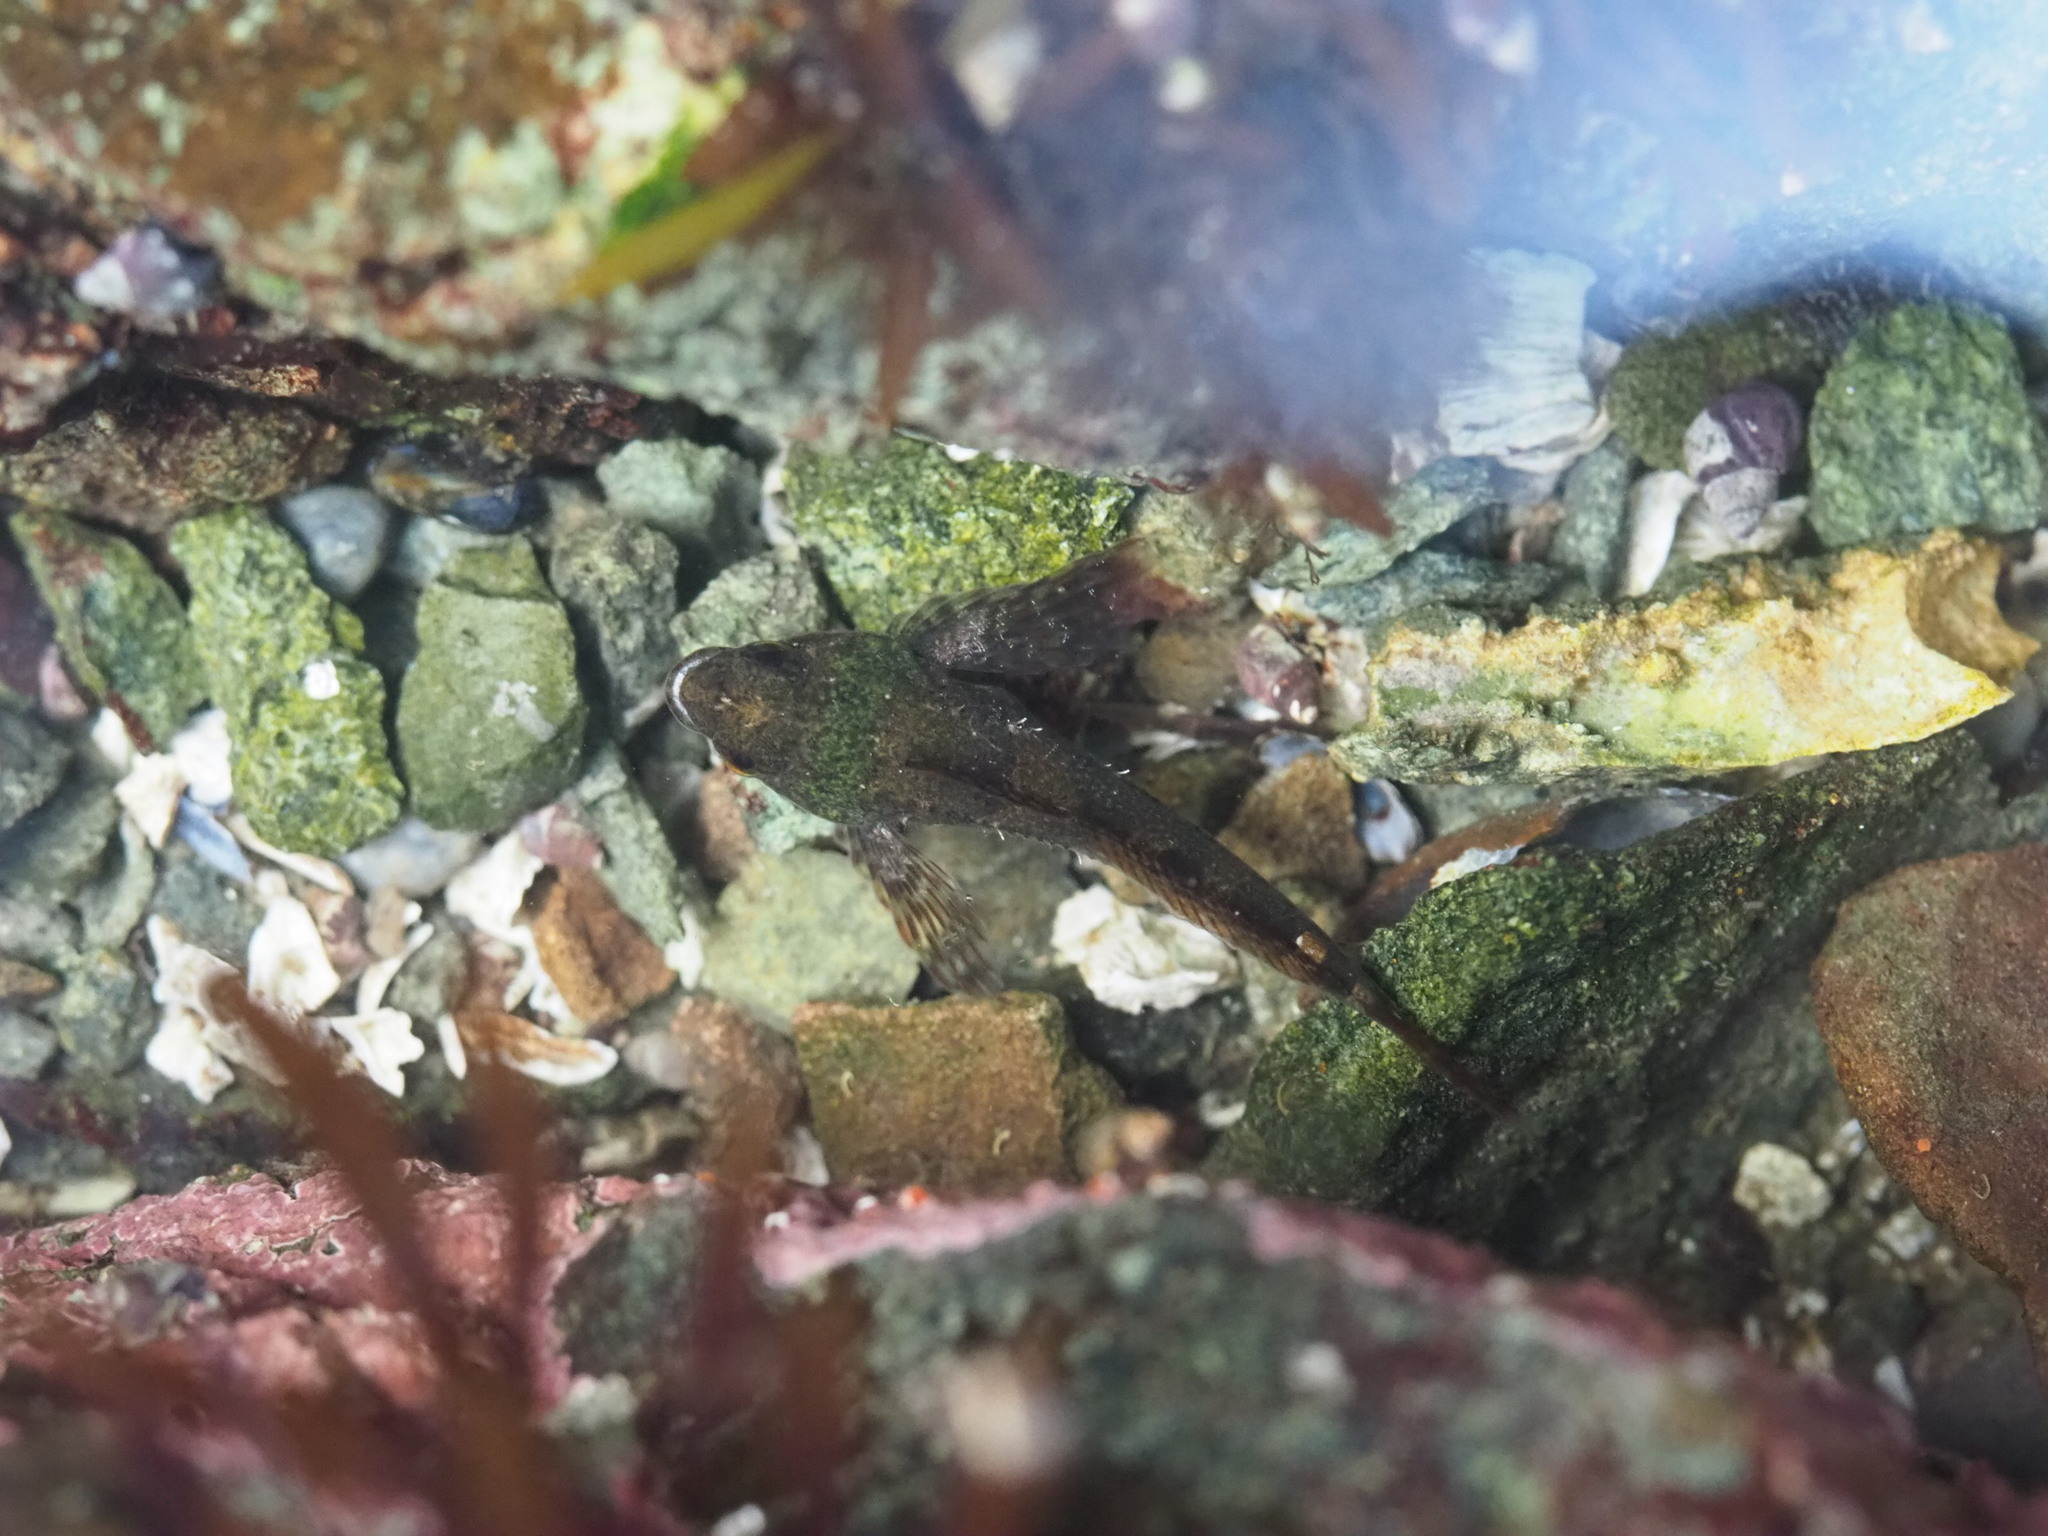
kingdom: Animalia
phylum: Chordata
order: Scorpaeniformes
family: Cottidae
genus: Oligocottus
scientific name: Oligocottus maculosus
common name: Tidepool sculpin
